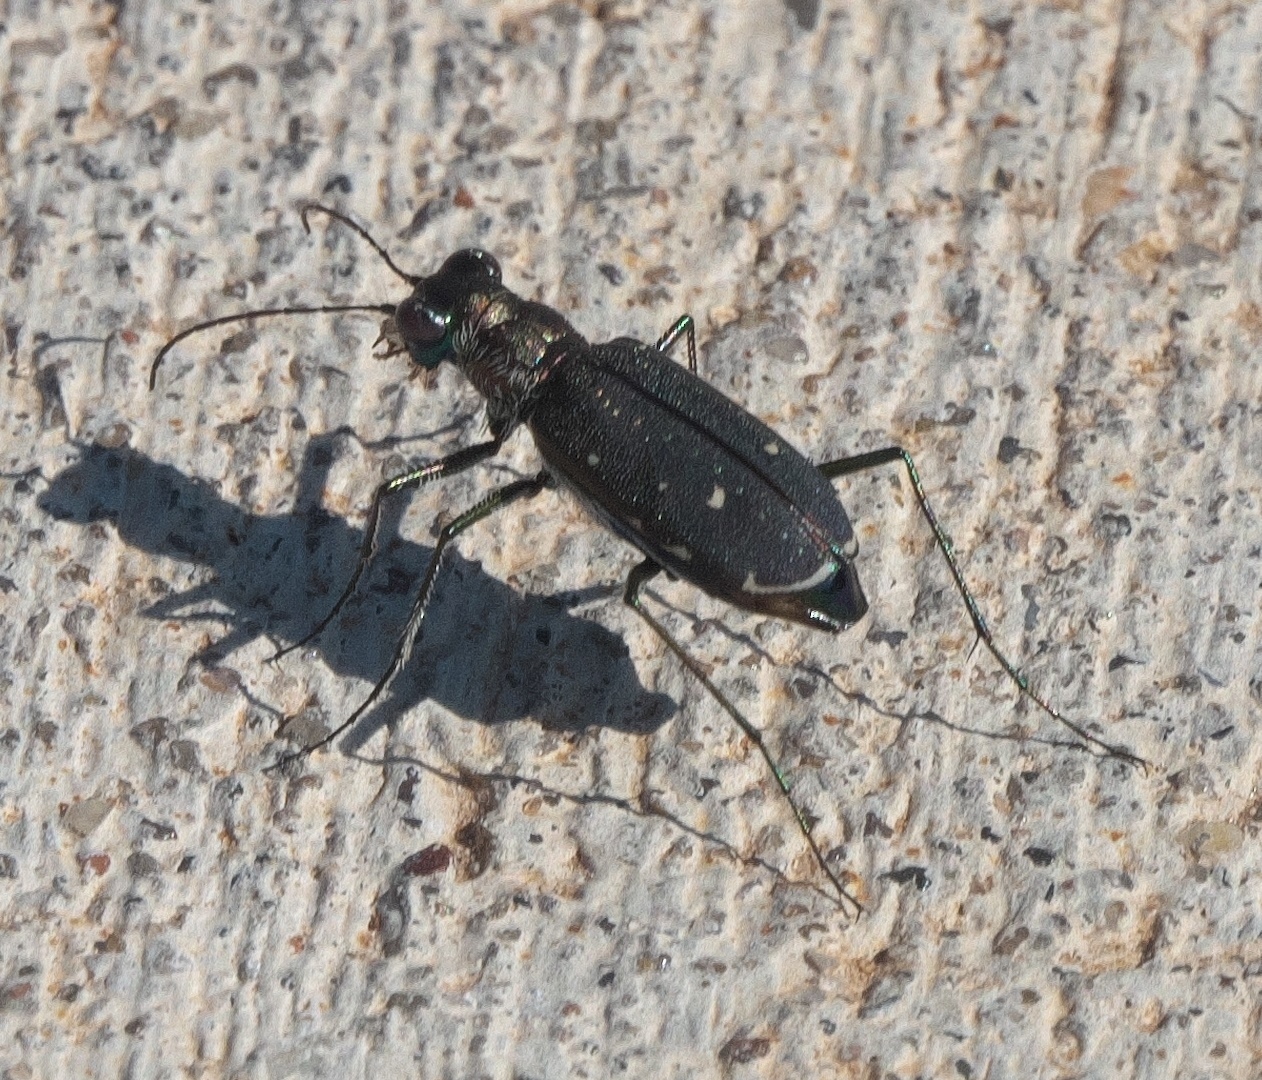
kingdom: Animalia
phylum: Arthropoda
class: Insecta
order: Coleoptera
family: Carabidae
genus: Cicindela
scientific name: Cicindela punctulata
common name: Punctured tiger beetle
